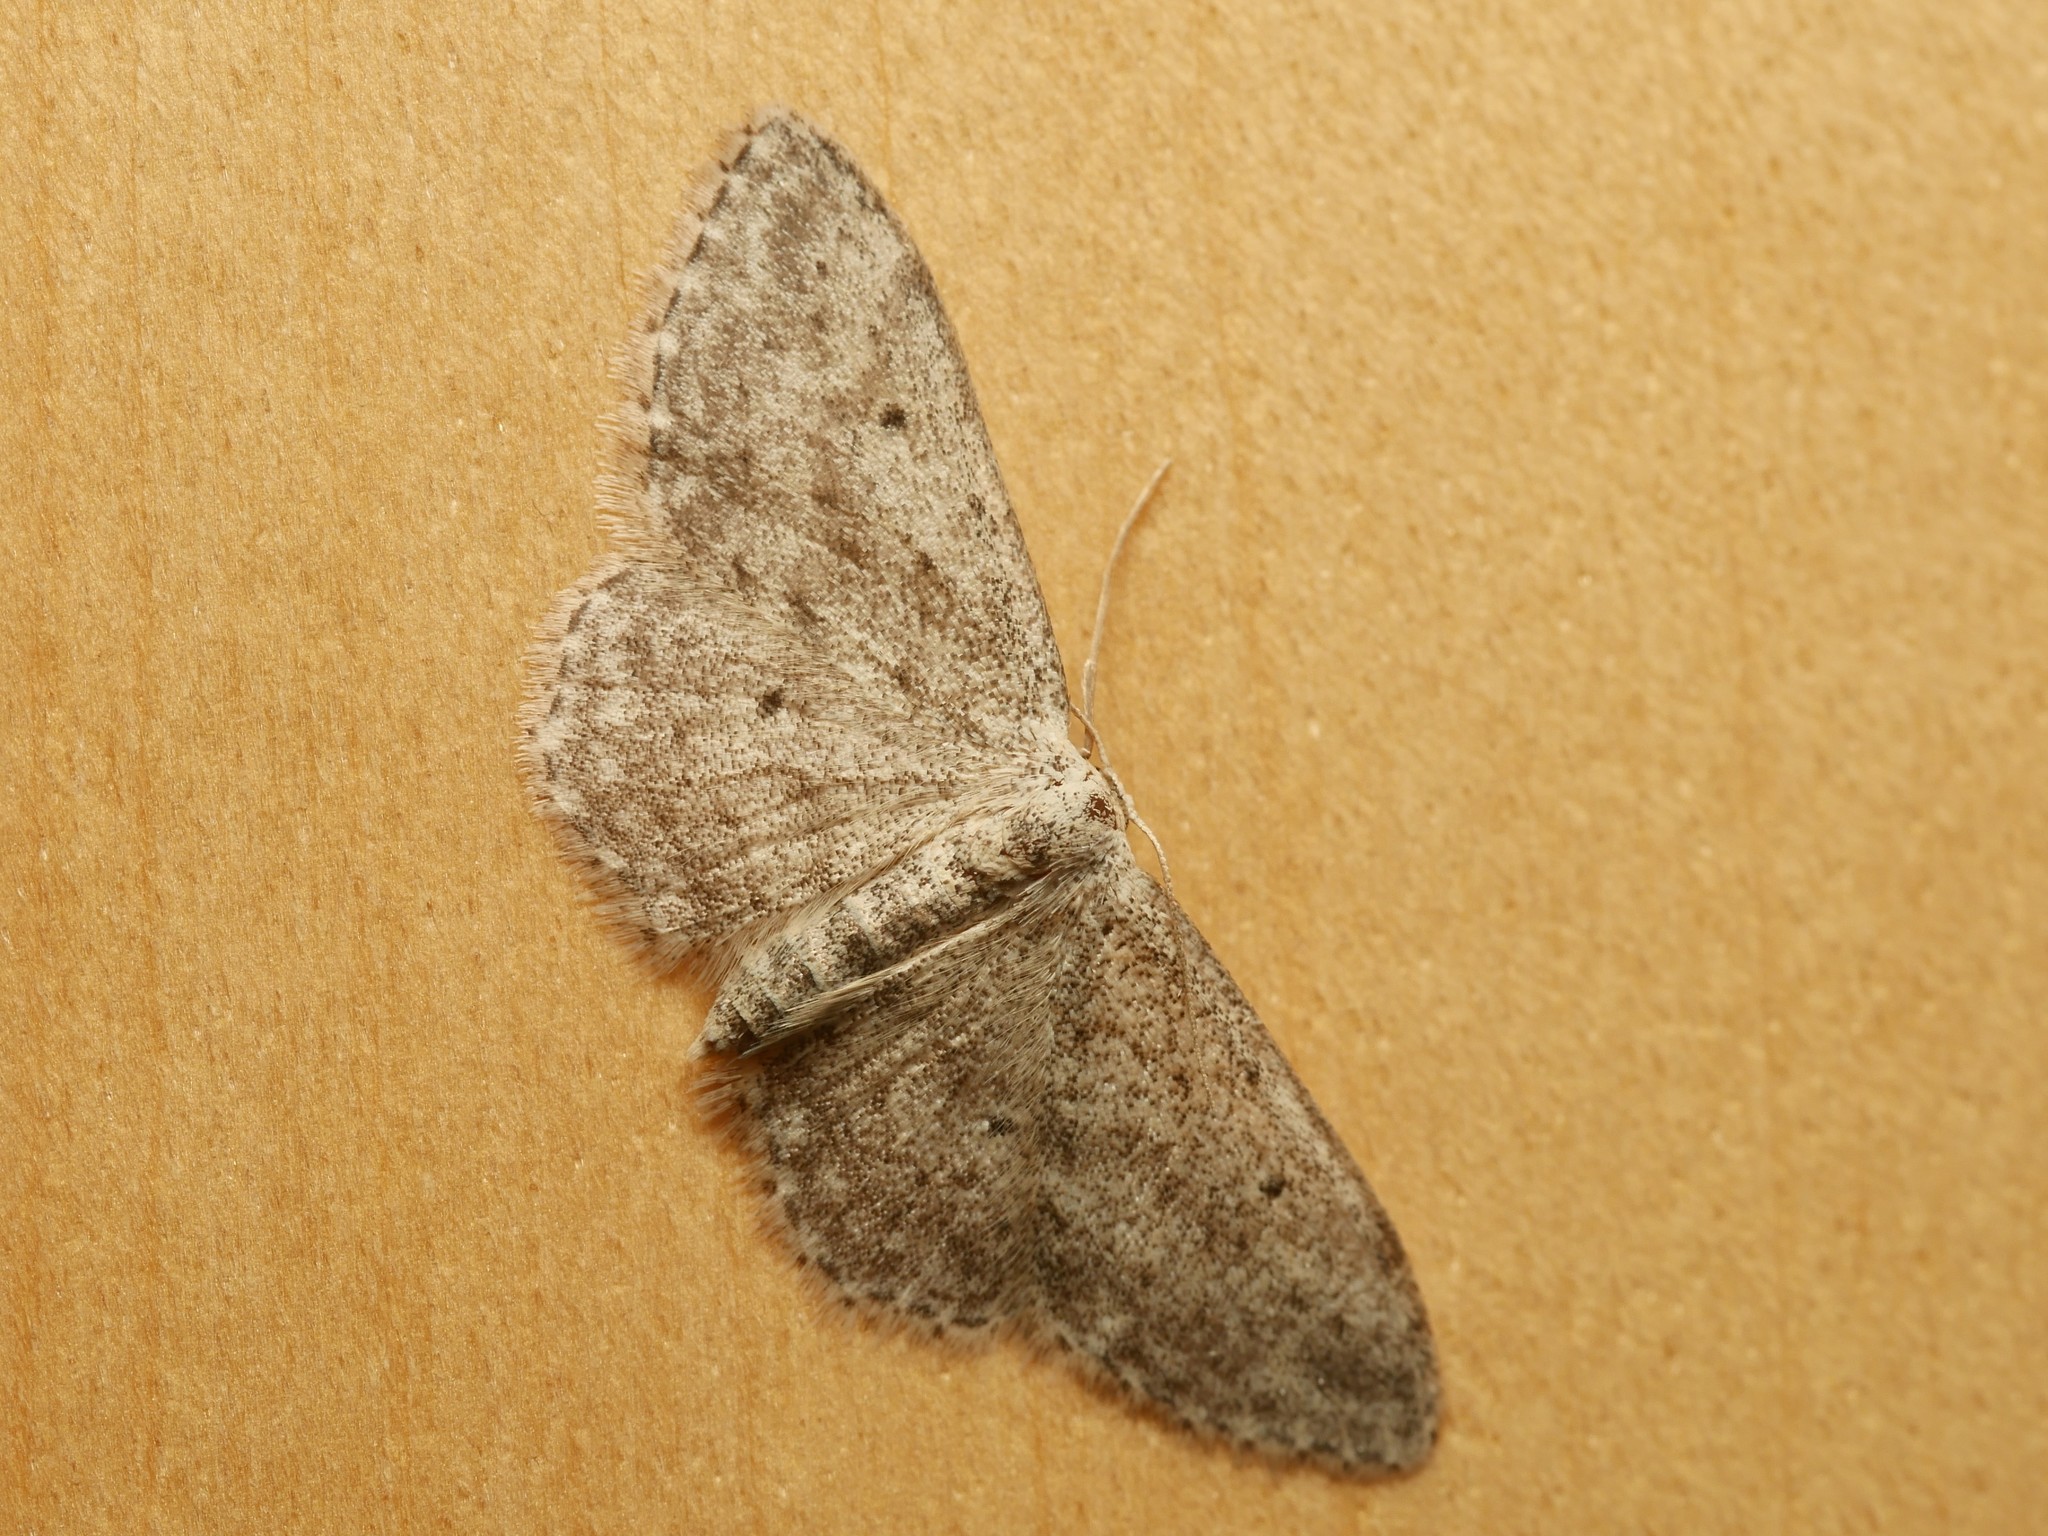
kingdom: Animalia
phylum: Arthropoda
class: Insecta
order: Lepidoptera
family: Geometridae
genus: Idaea
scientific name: Idaea seriata
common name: Small dusty wave
